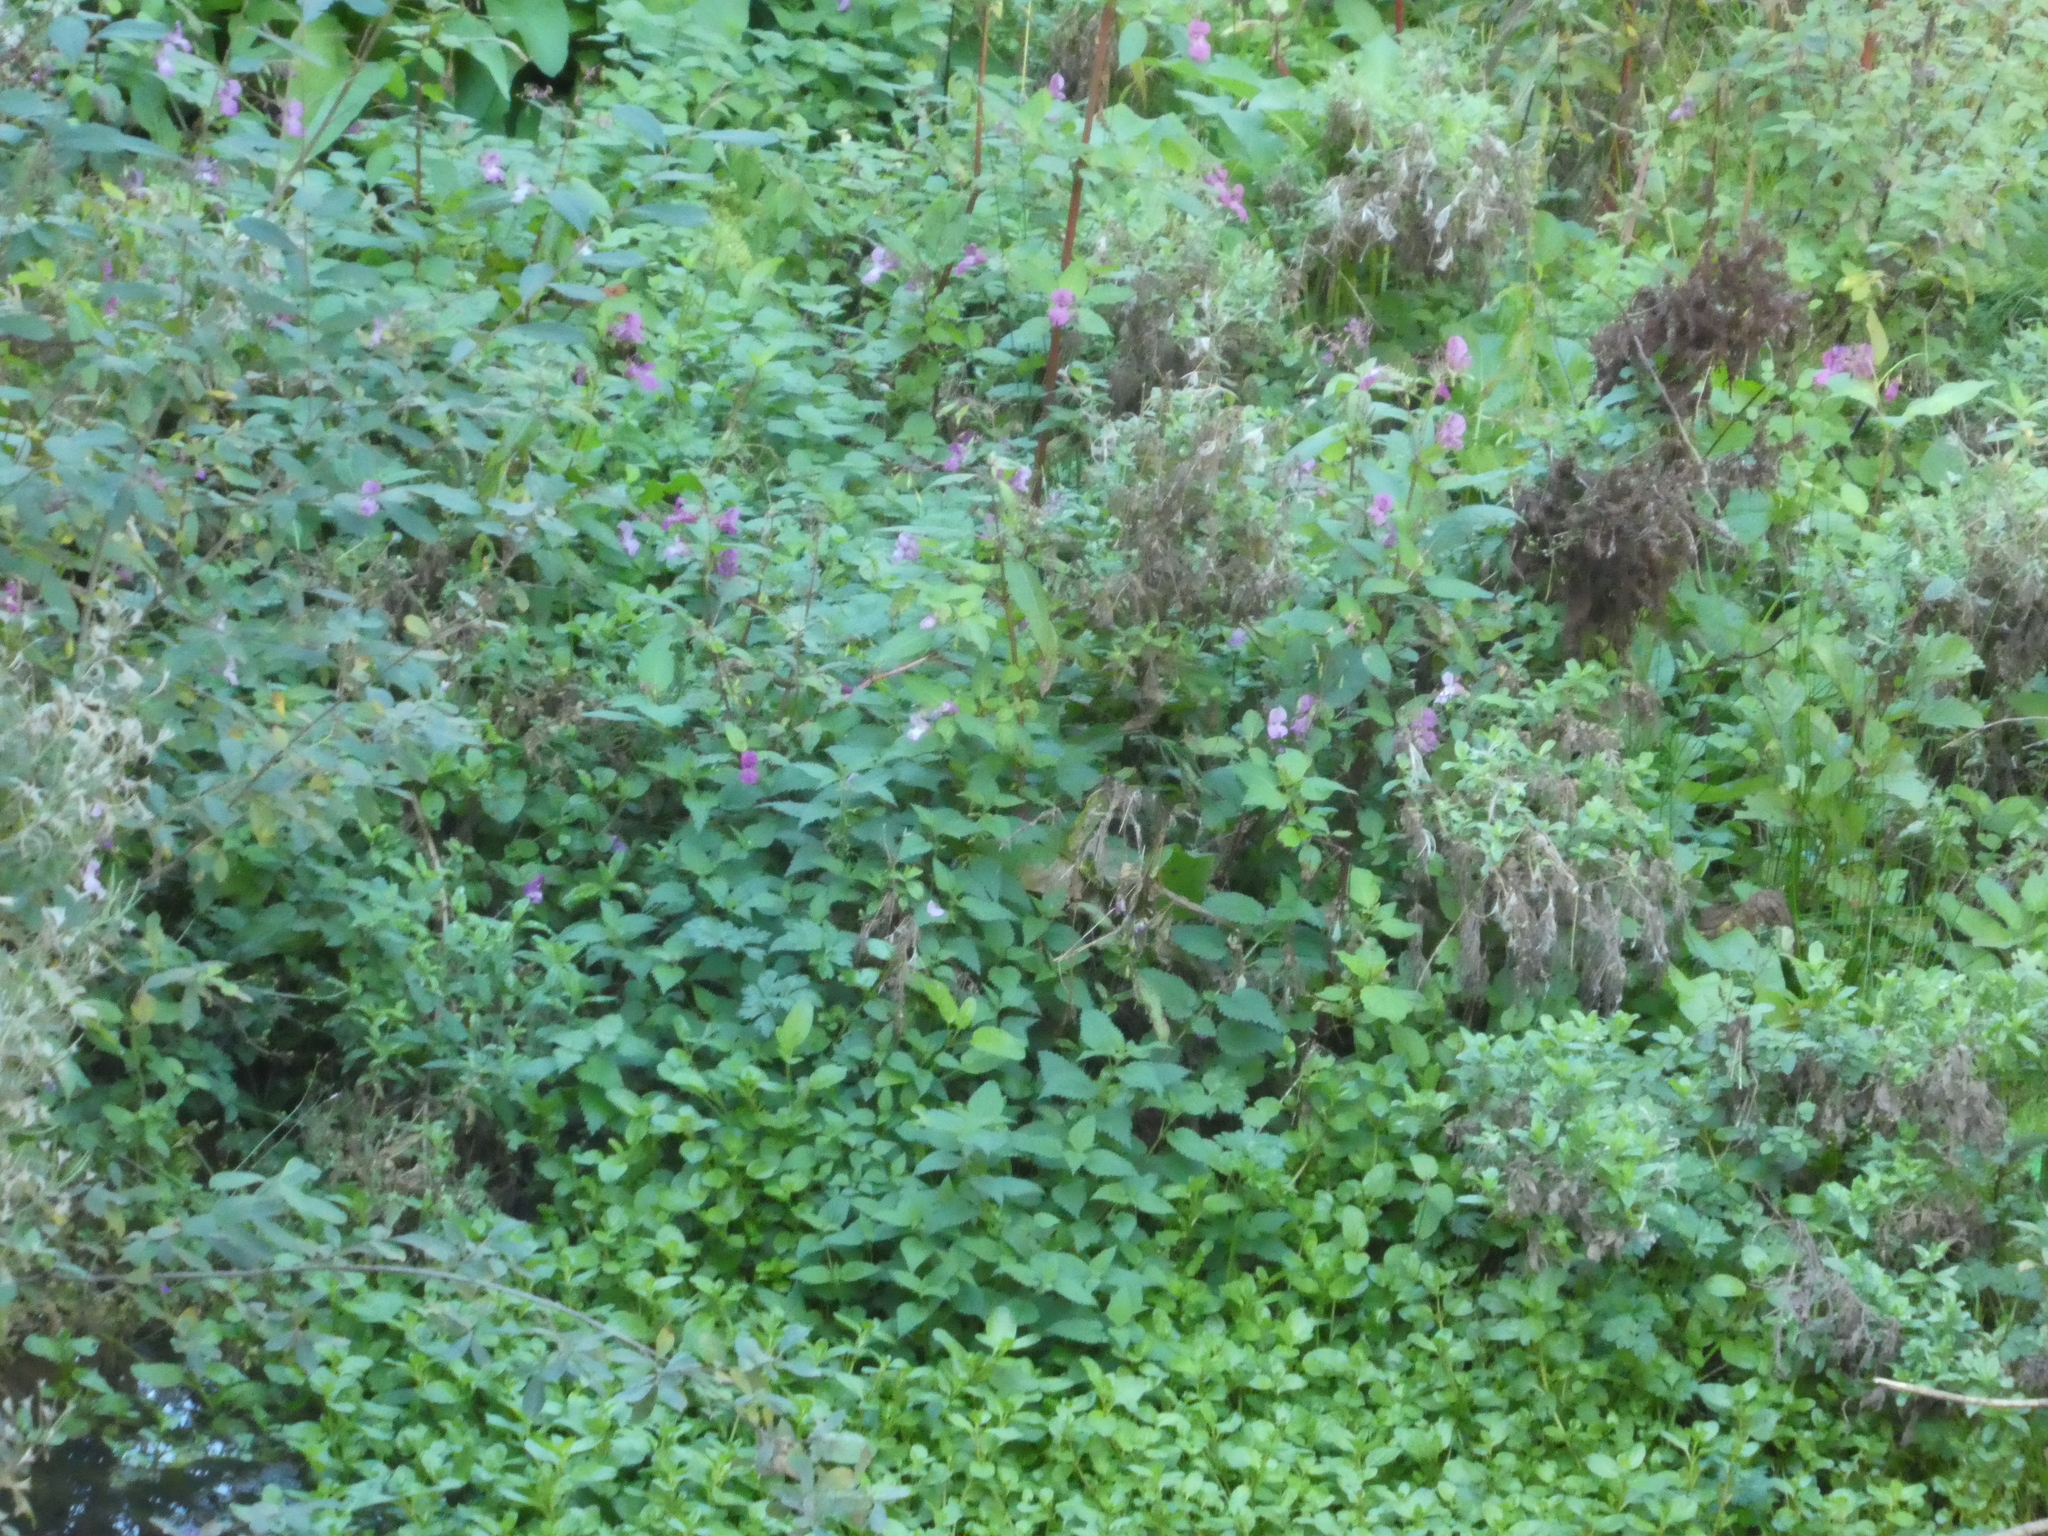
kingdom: Plantae
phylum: Tracheophyta
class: Magnoliopsida
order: Ericales
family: Balsaminaceae
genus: Impatiens
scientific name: Impatiens glandulifera
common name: Himalayan balsam
